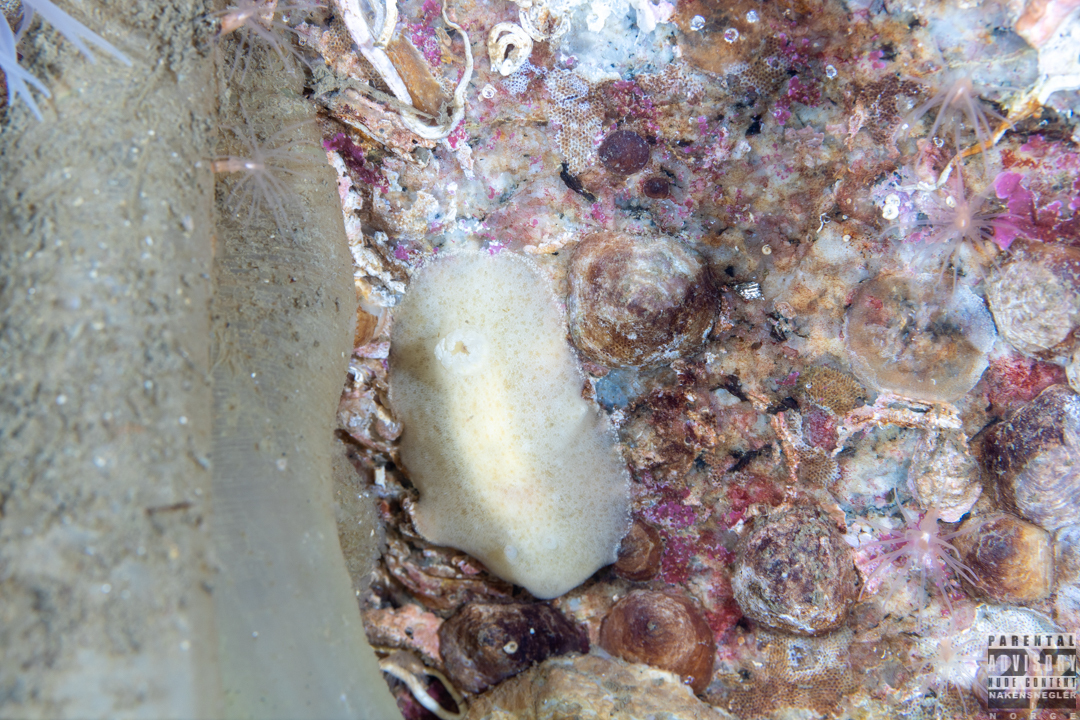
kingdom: Animalia
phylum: Mollusca
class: Gastropoda
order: Nudibranchia
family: Discodorididae
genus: Jorunna
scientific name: Jorunna tomentosa
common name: Grey sea slug
